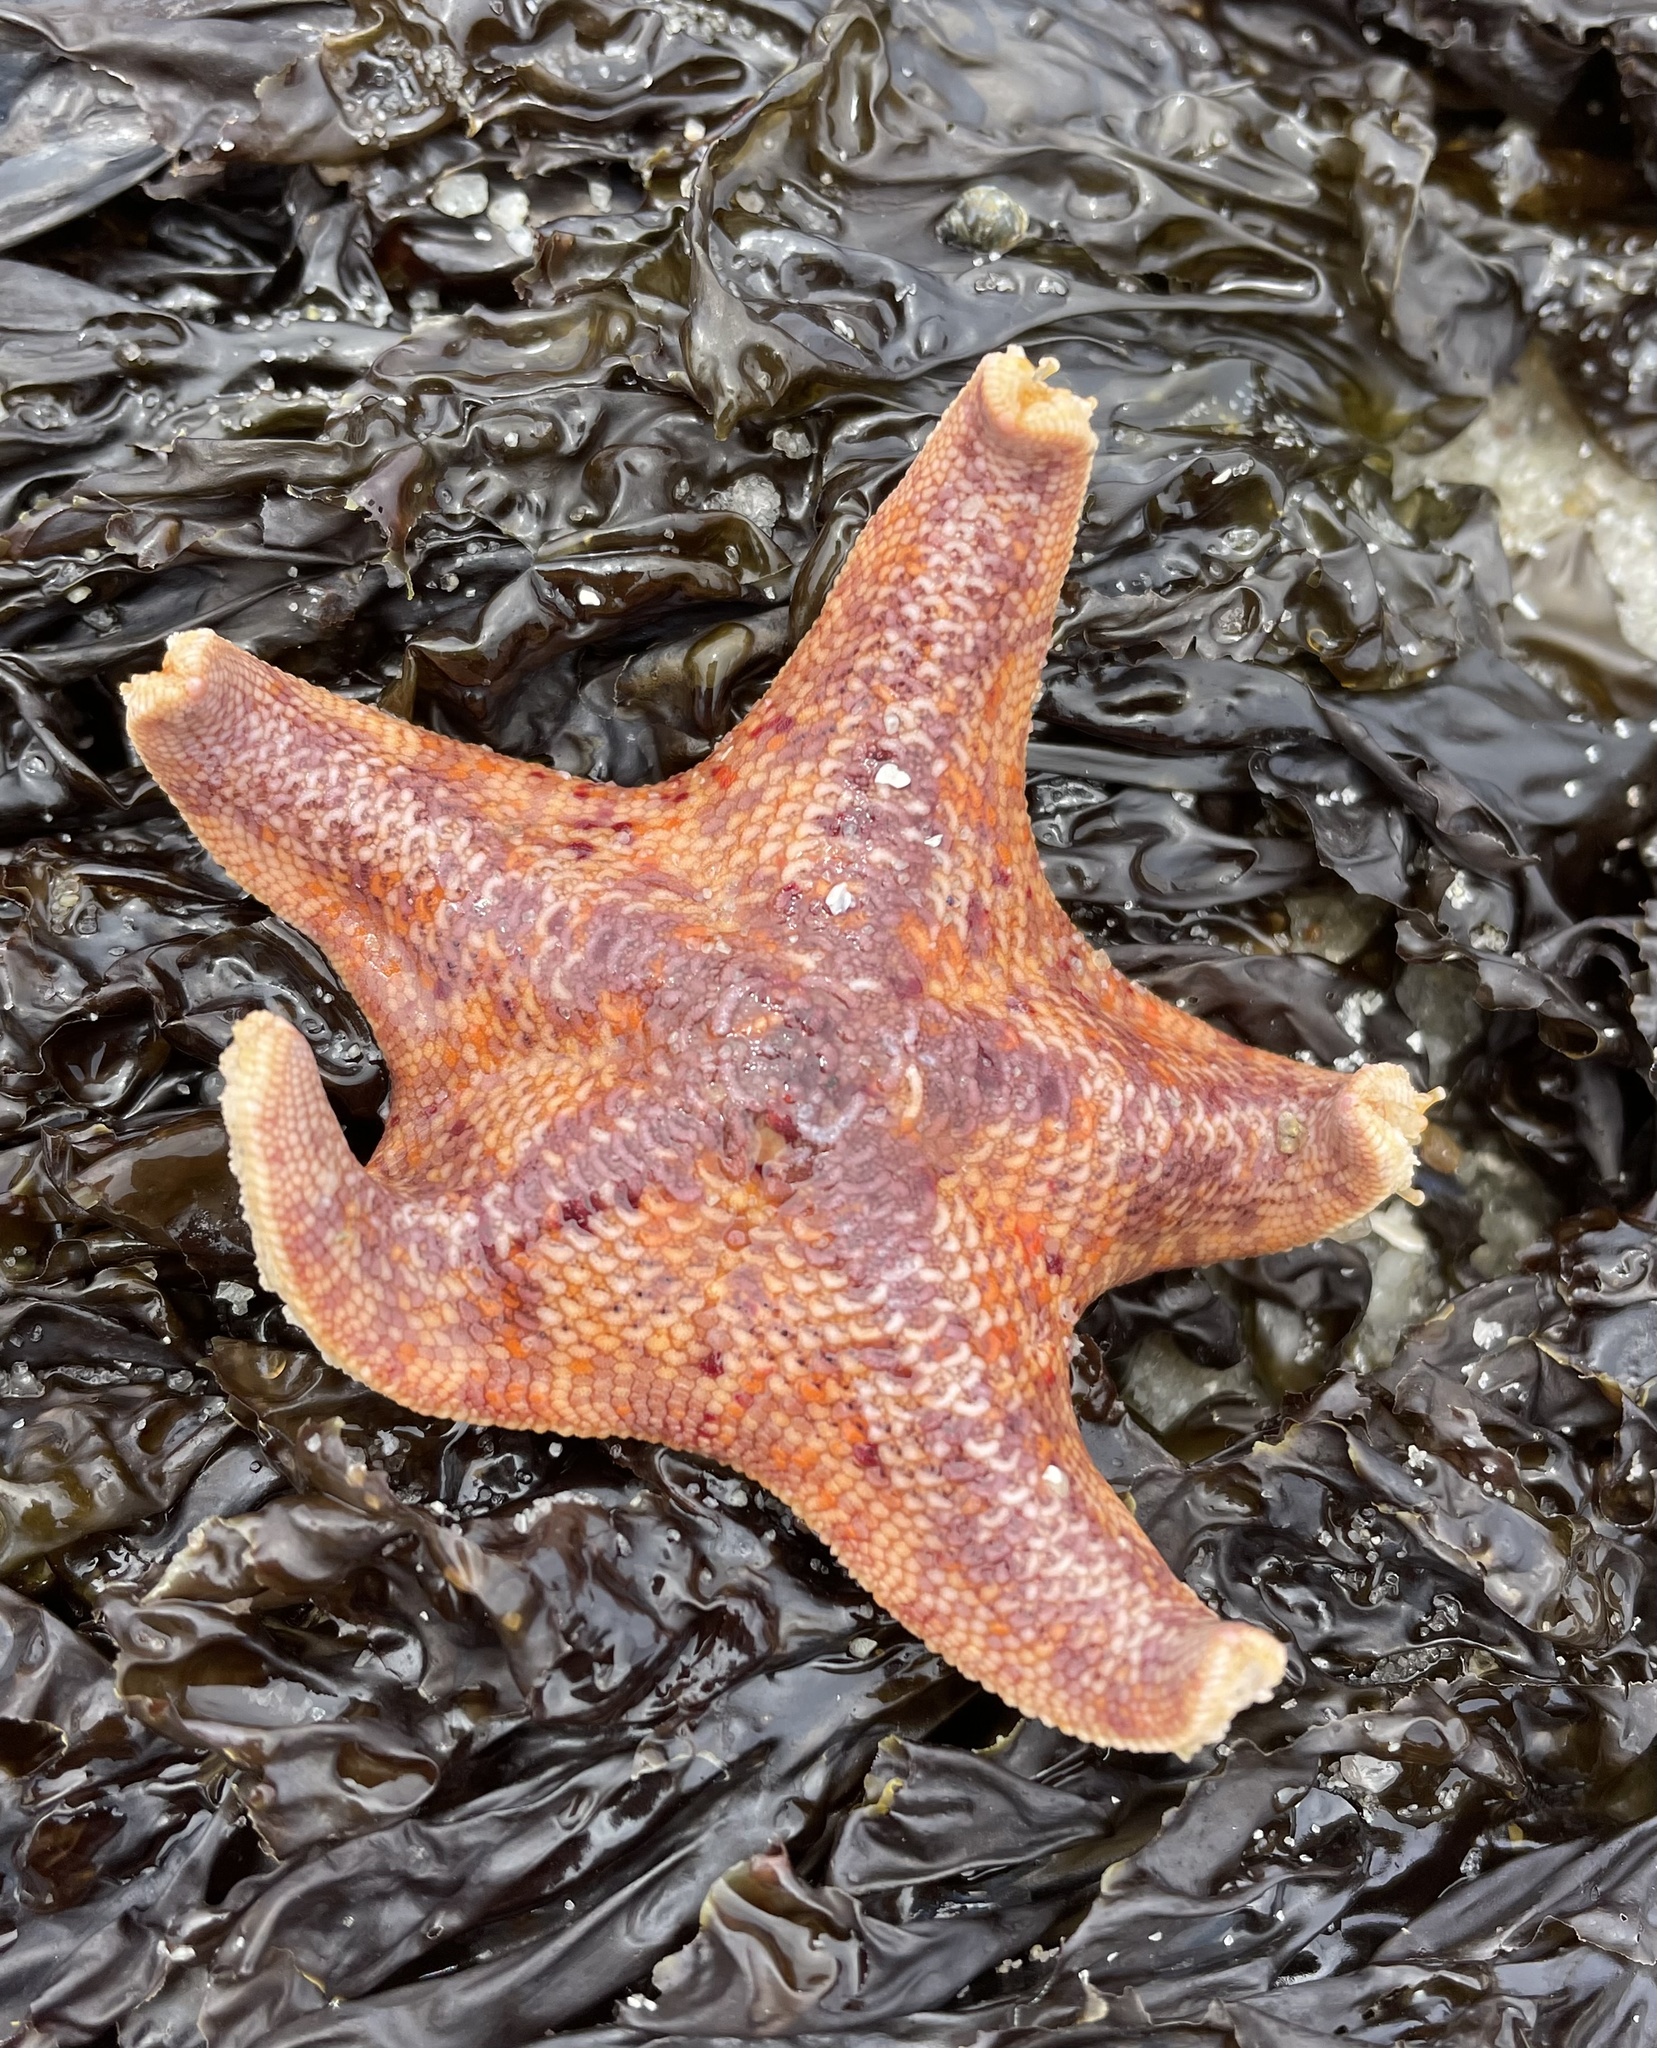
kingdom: Animalia
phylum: Echinodermata
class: Asteroidea
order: Valvatida
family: Asterinidae
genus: Patiria
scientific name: Patiria miniata
